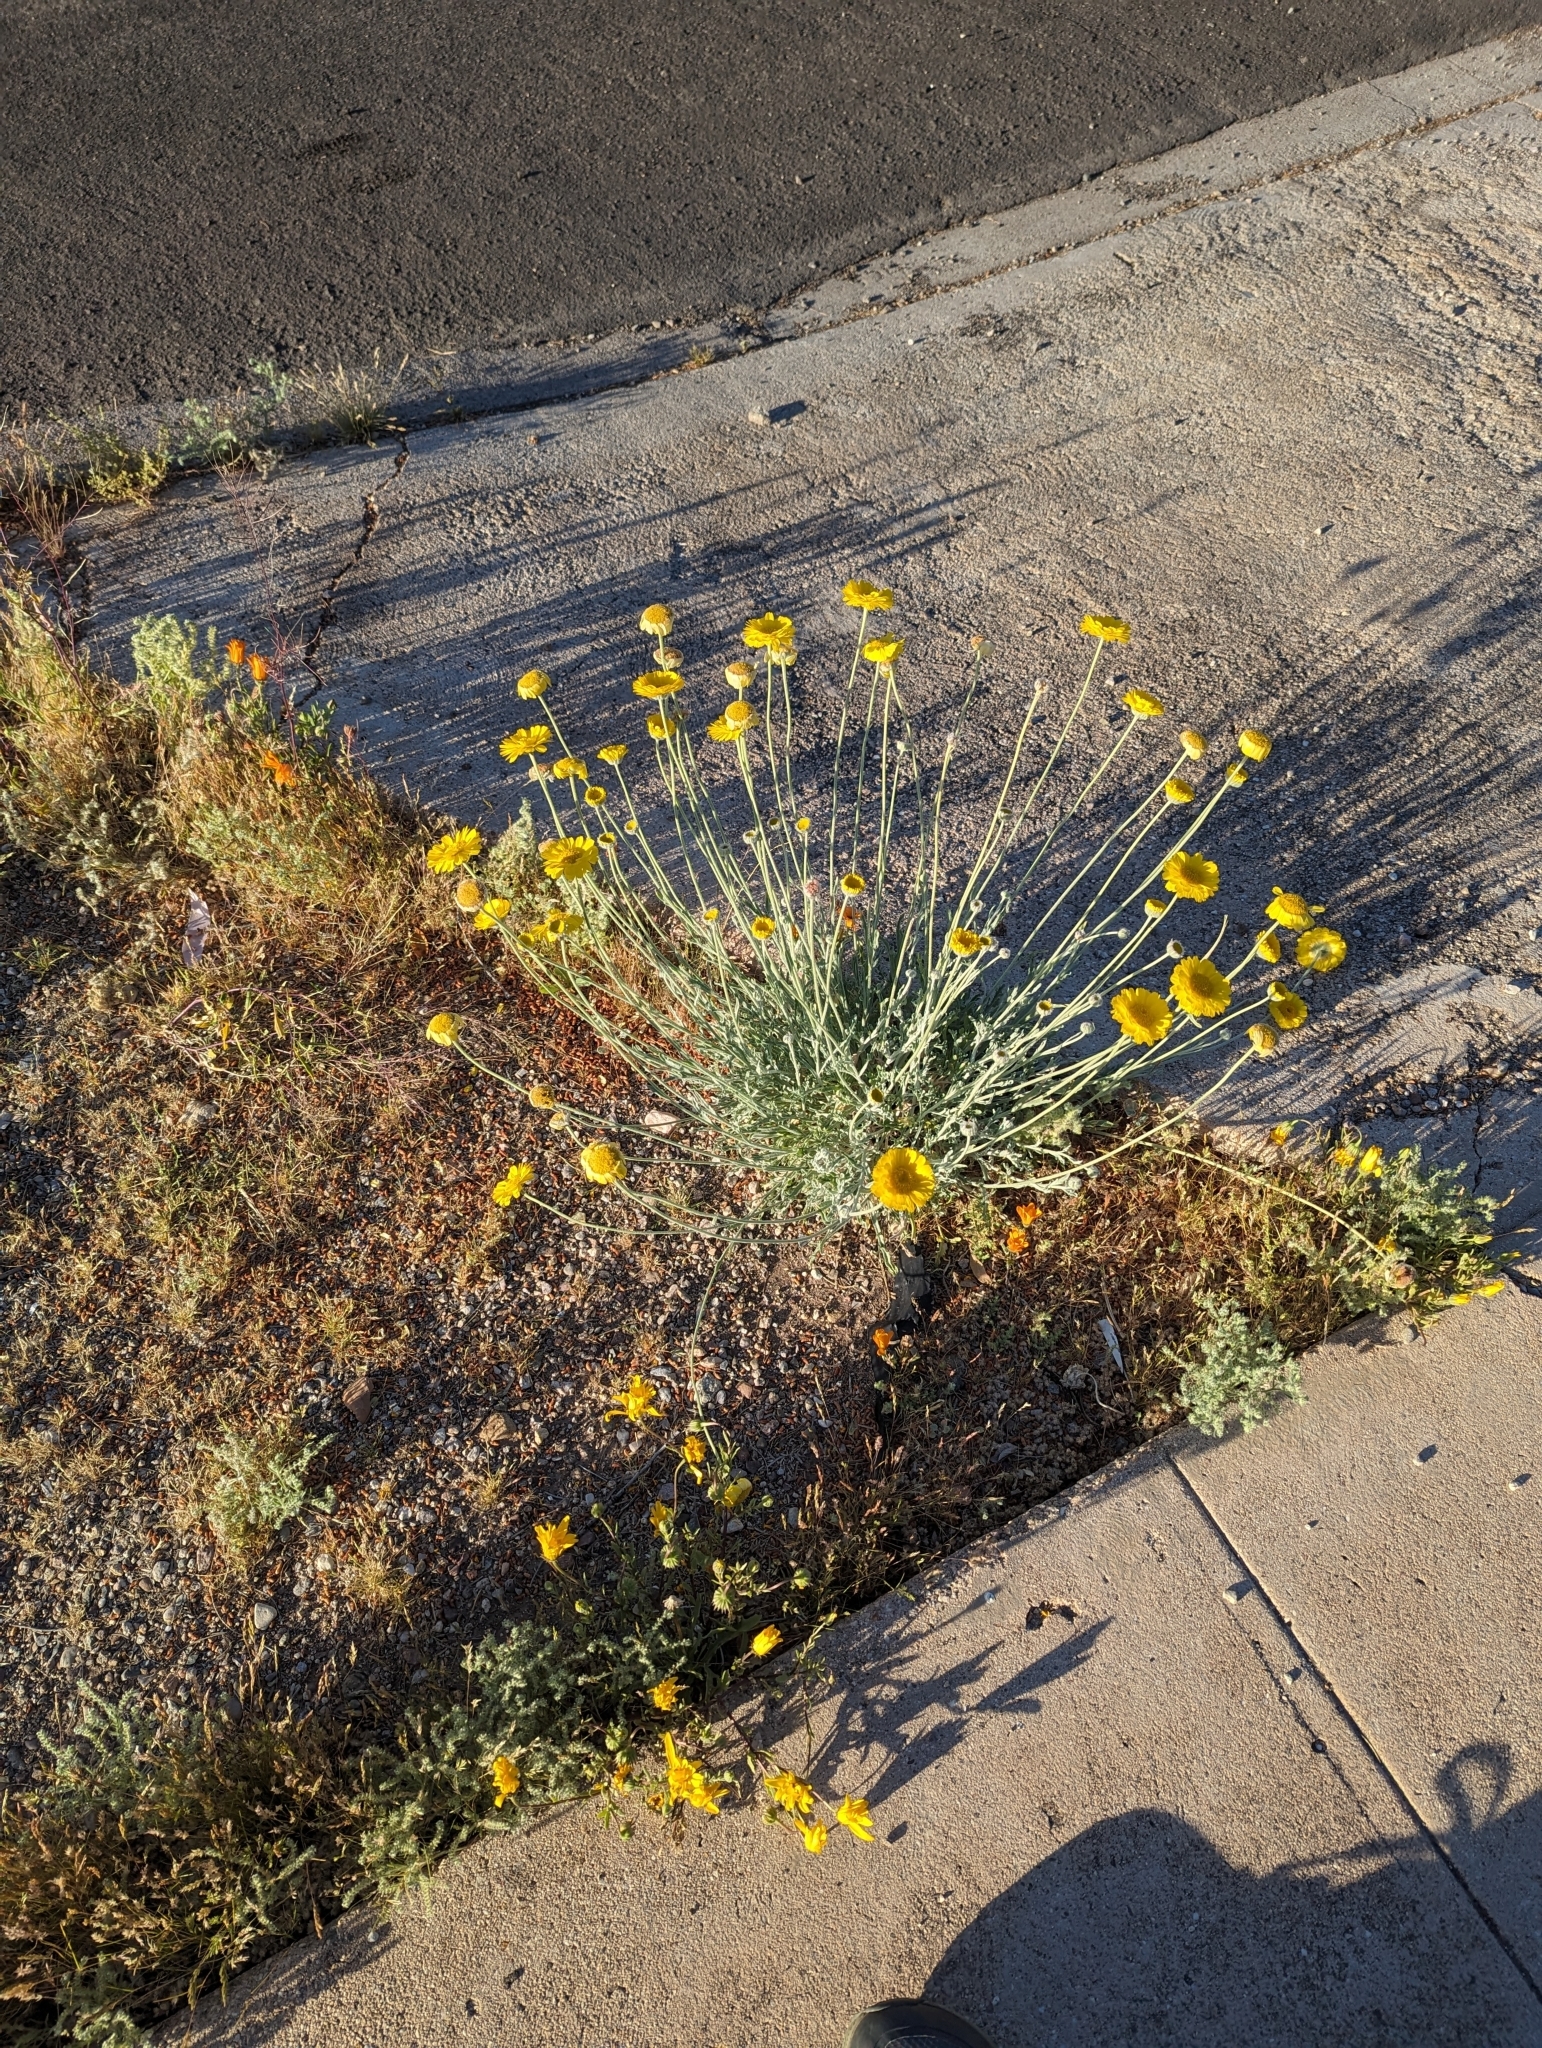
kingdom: Plantae
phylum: Tracheophyta
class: Magnoliopsida
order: Asterales
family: Asteraceae
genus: Baileya
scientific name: Baileya multiradiata
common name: Desert-marigold
